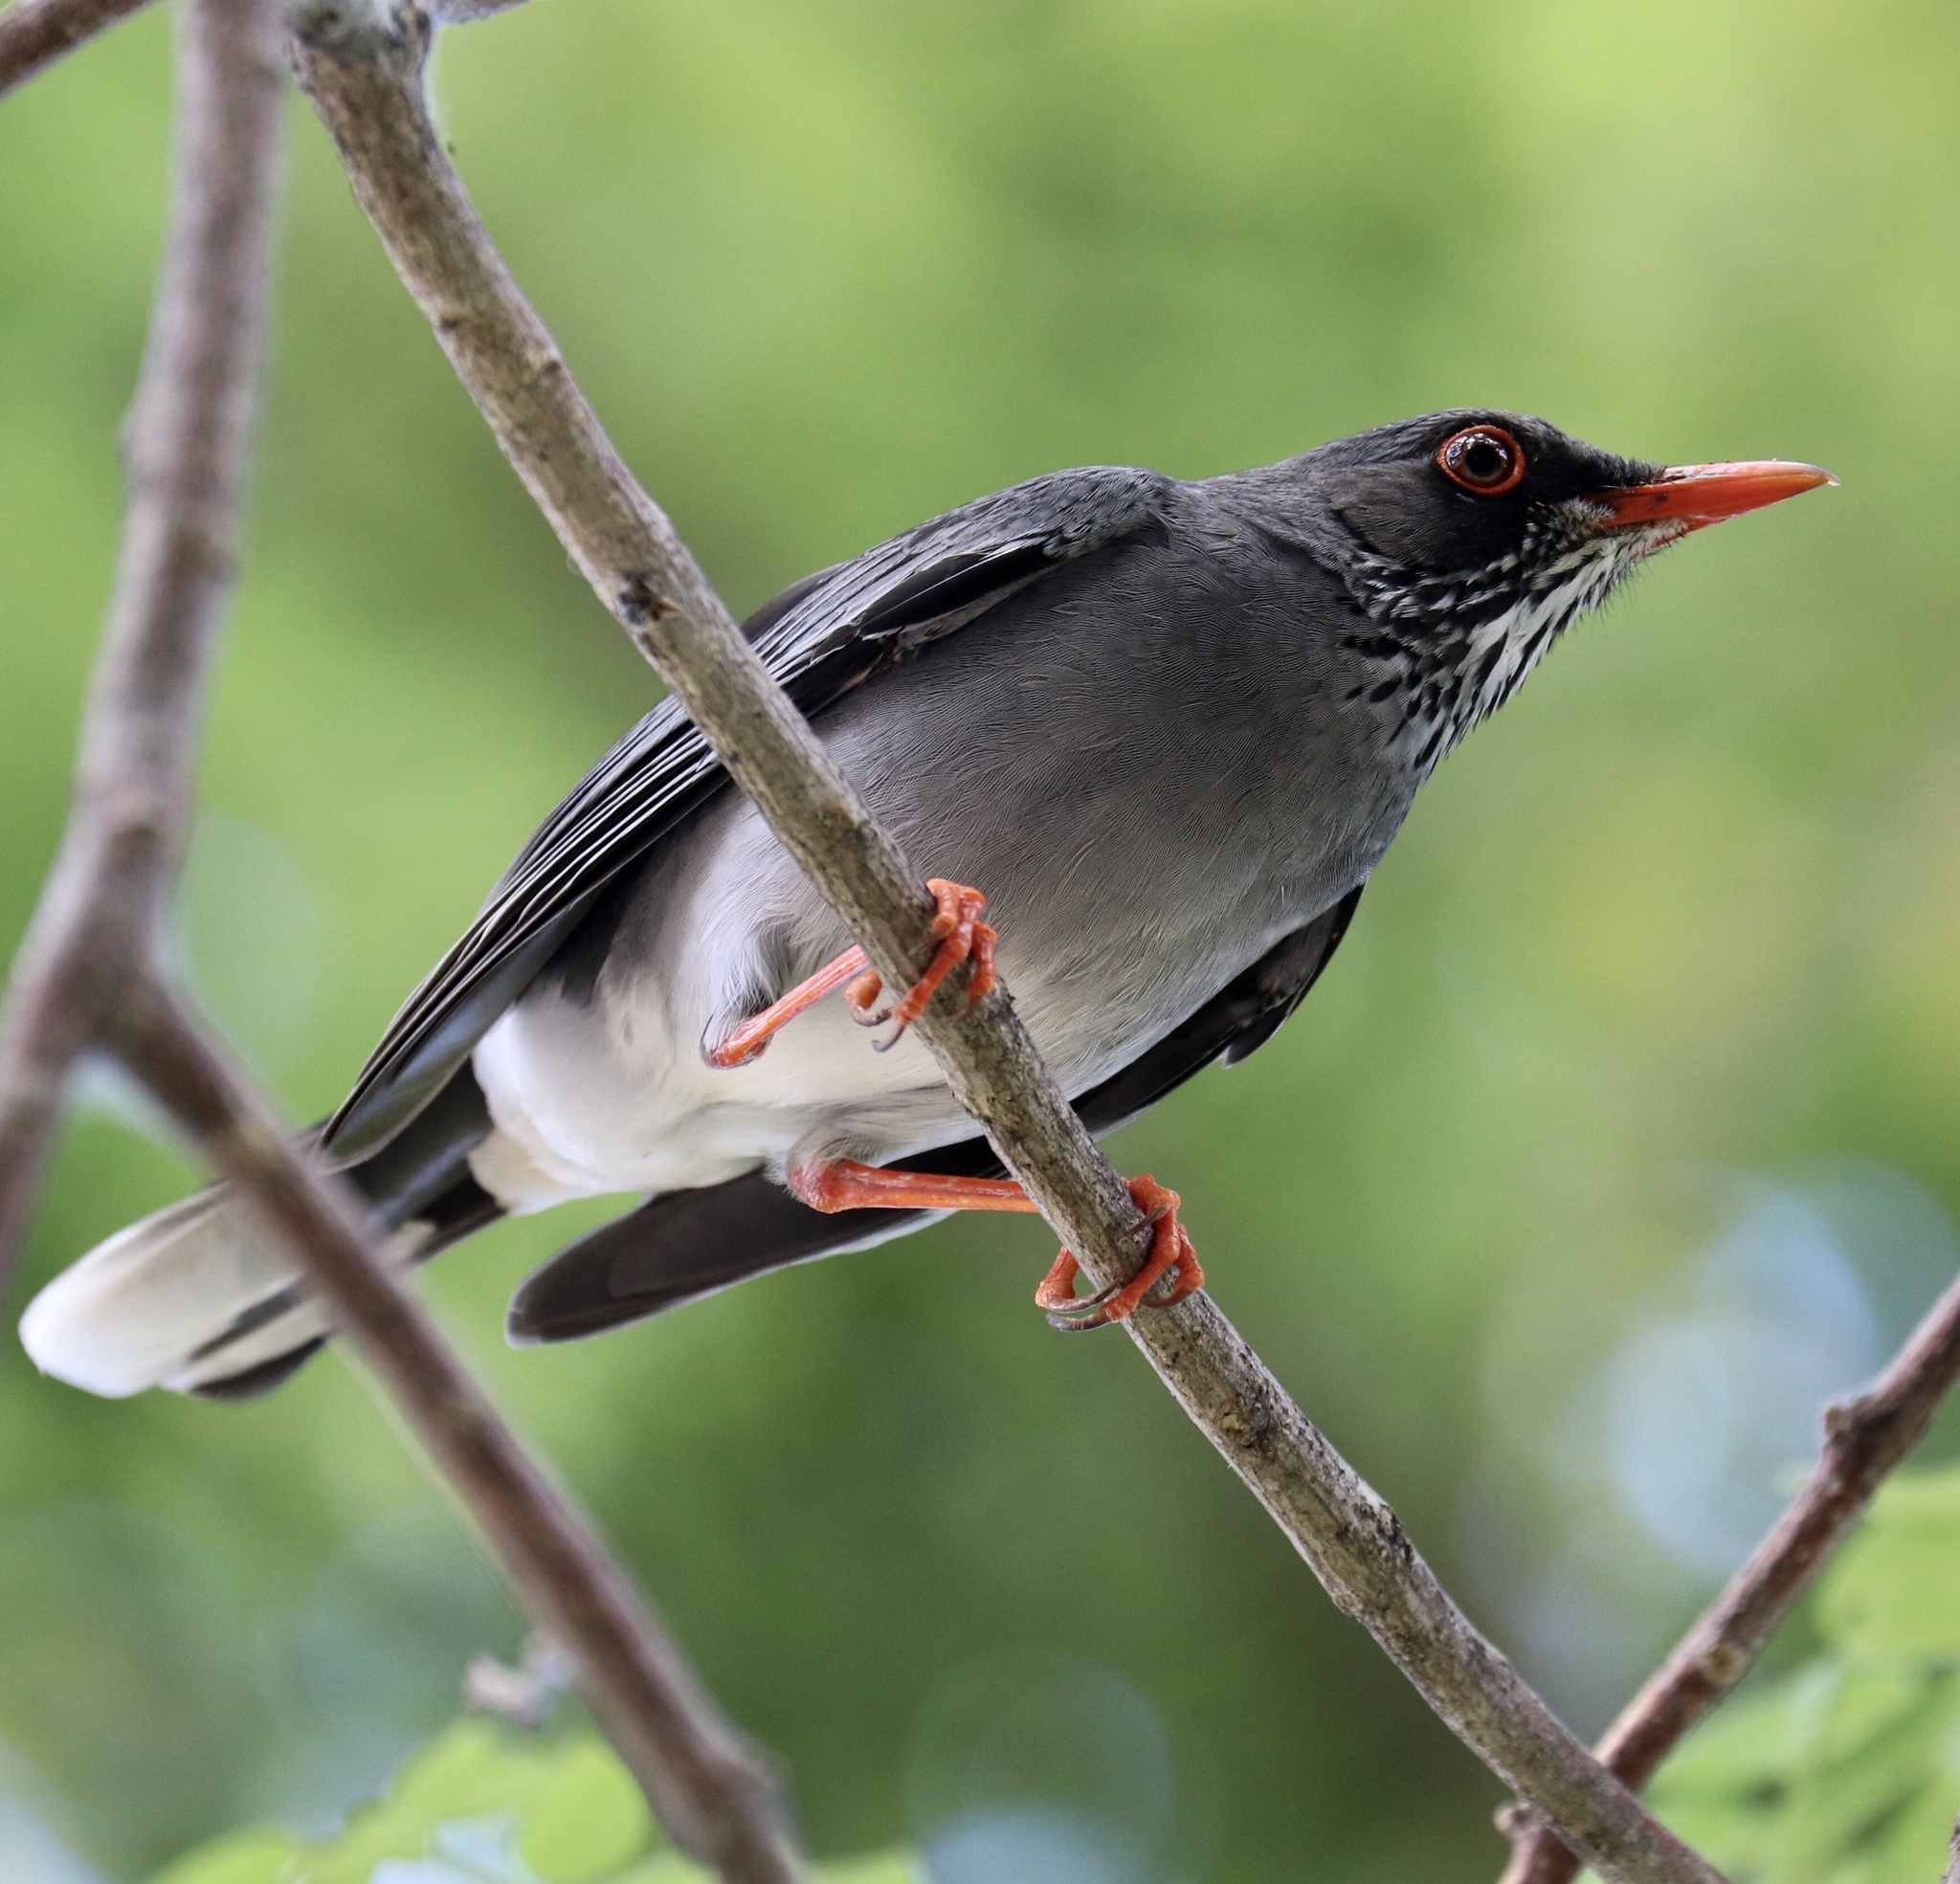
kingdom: Animalia
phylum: Chordata
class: Aves
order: Passeriformes
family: Turdidae
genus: Turdus
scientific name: Turdus plumbeus
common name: Red-legged thrush
